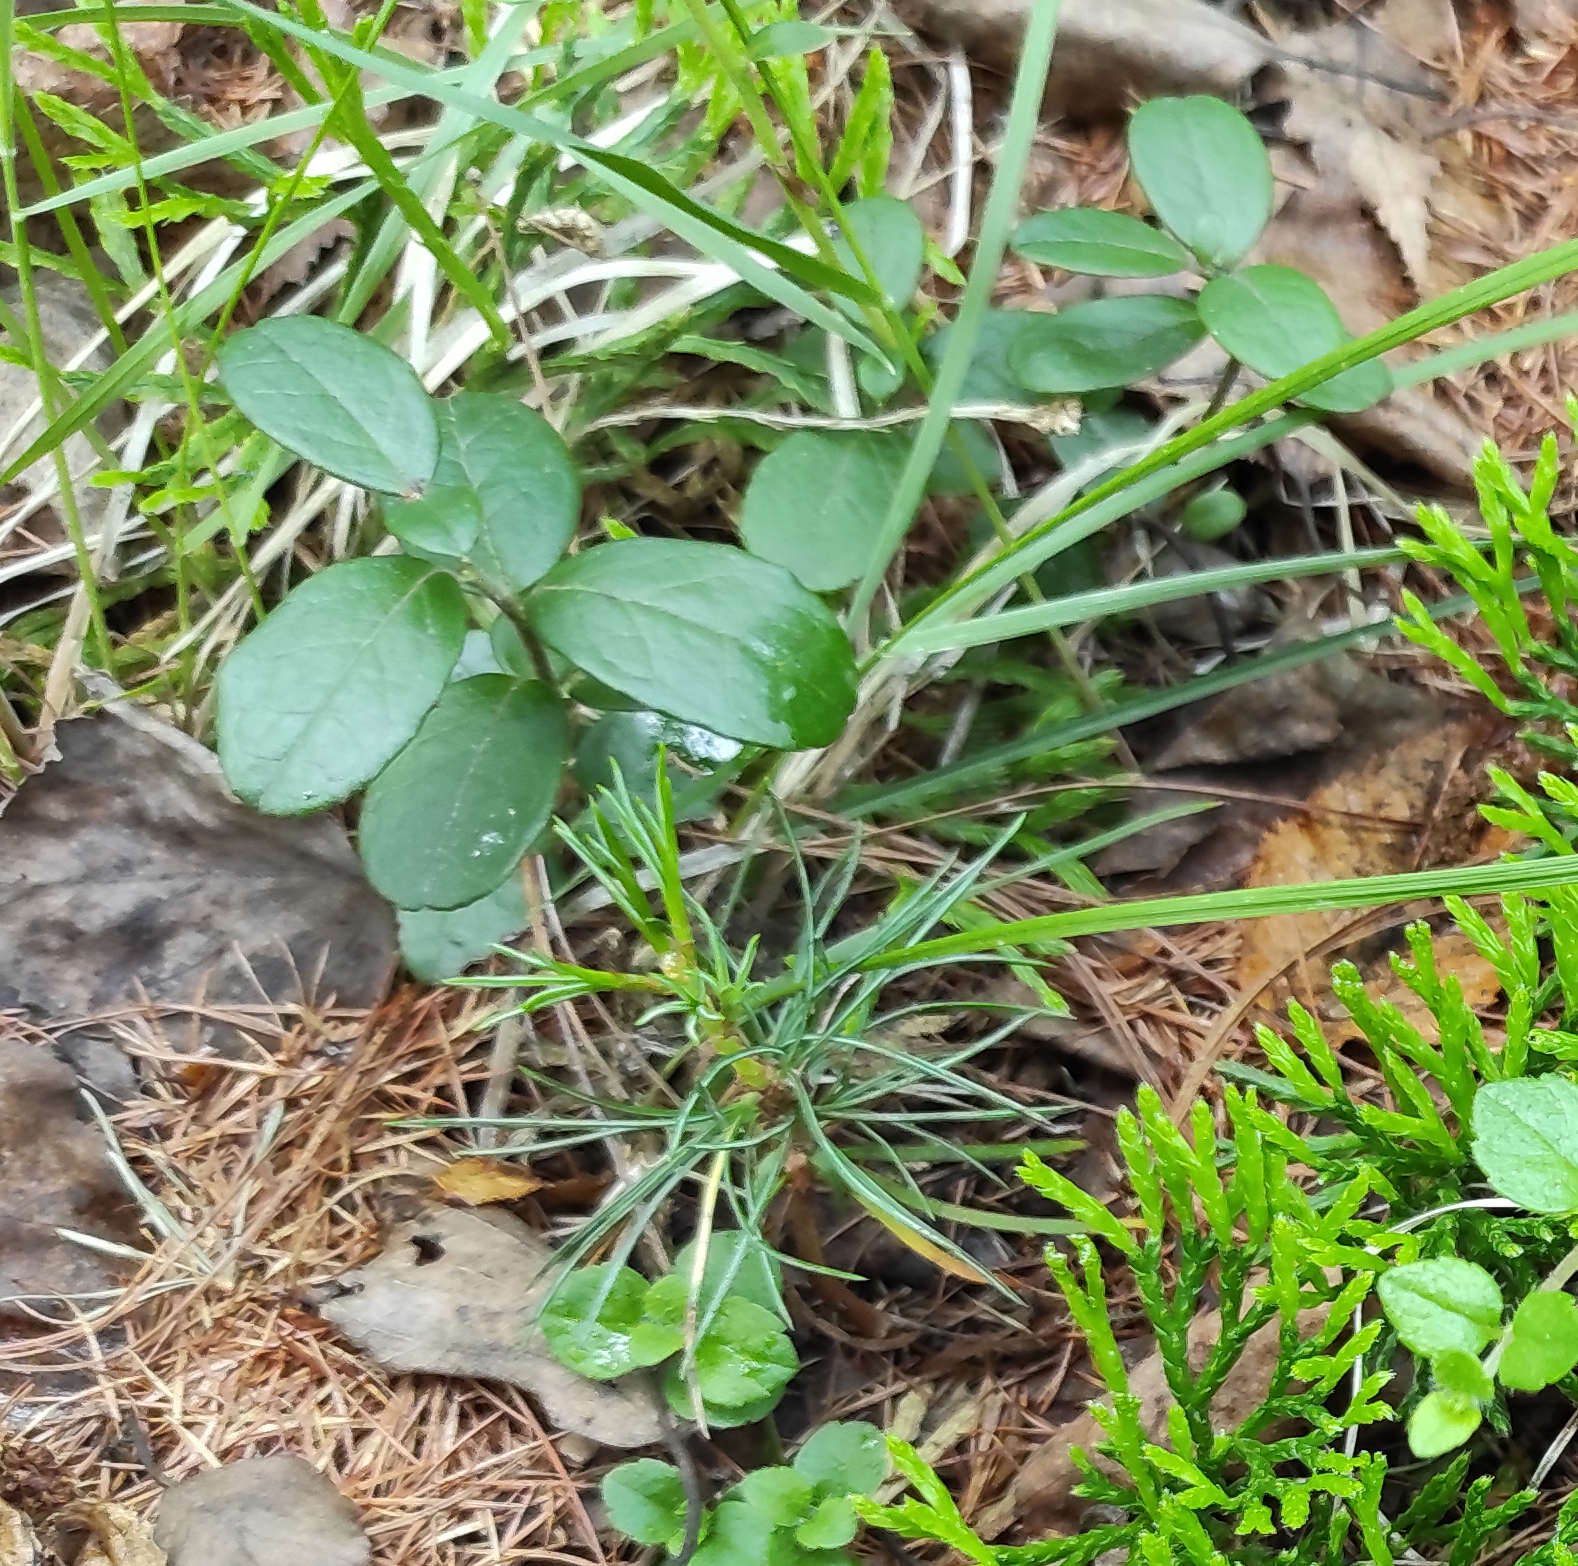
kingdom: Plantae
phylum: Tracheophyta
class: Lycopodiopsida
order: Lycopodiales
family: Lycopodiaceae
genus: Diphasiastrum
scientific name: Diphasiastrum complanatum
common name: Northern running-pine
